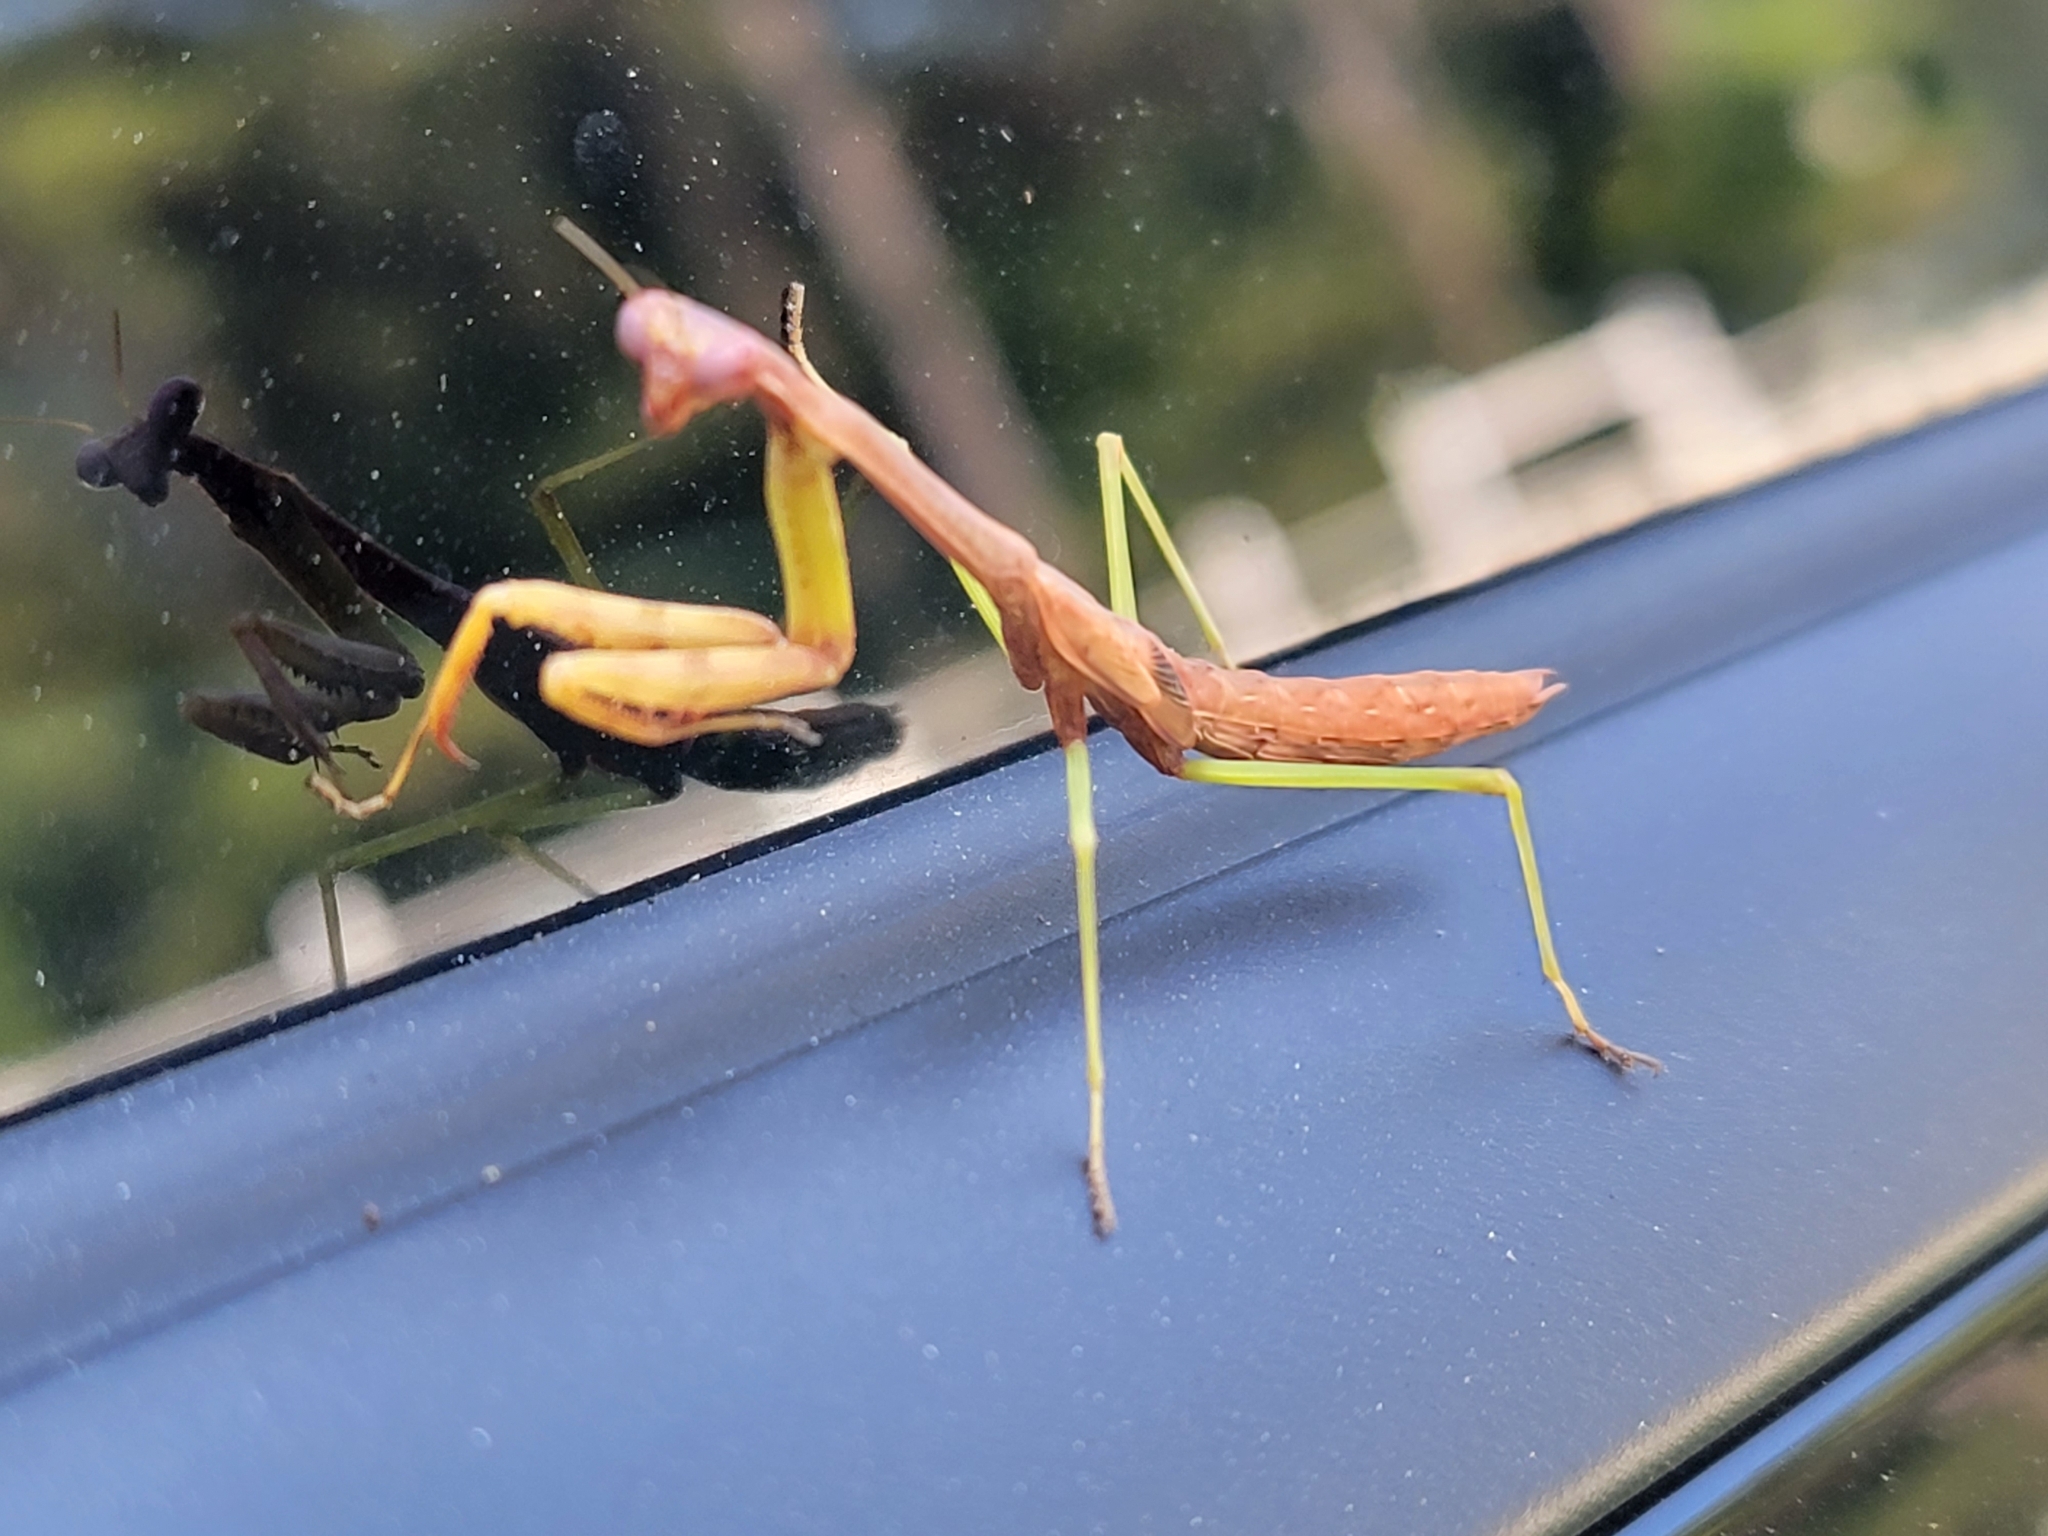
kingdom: Animalia
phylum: Arthropoda
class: Insecta
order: Mantodea
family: Mantidae
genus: Stagmomantis
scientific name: Stagmomantis carolina
